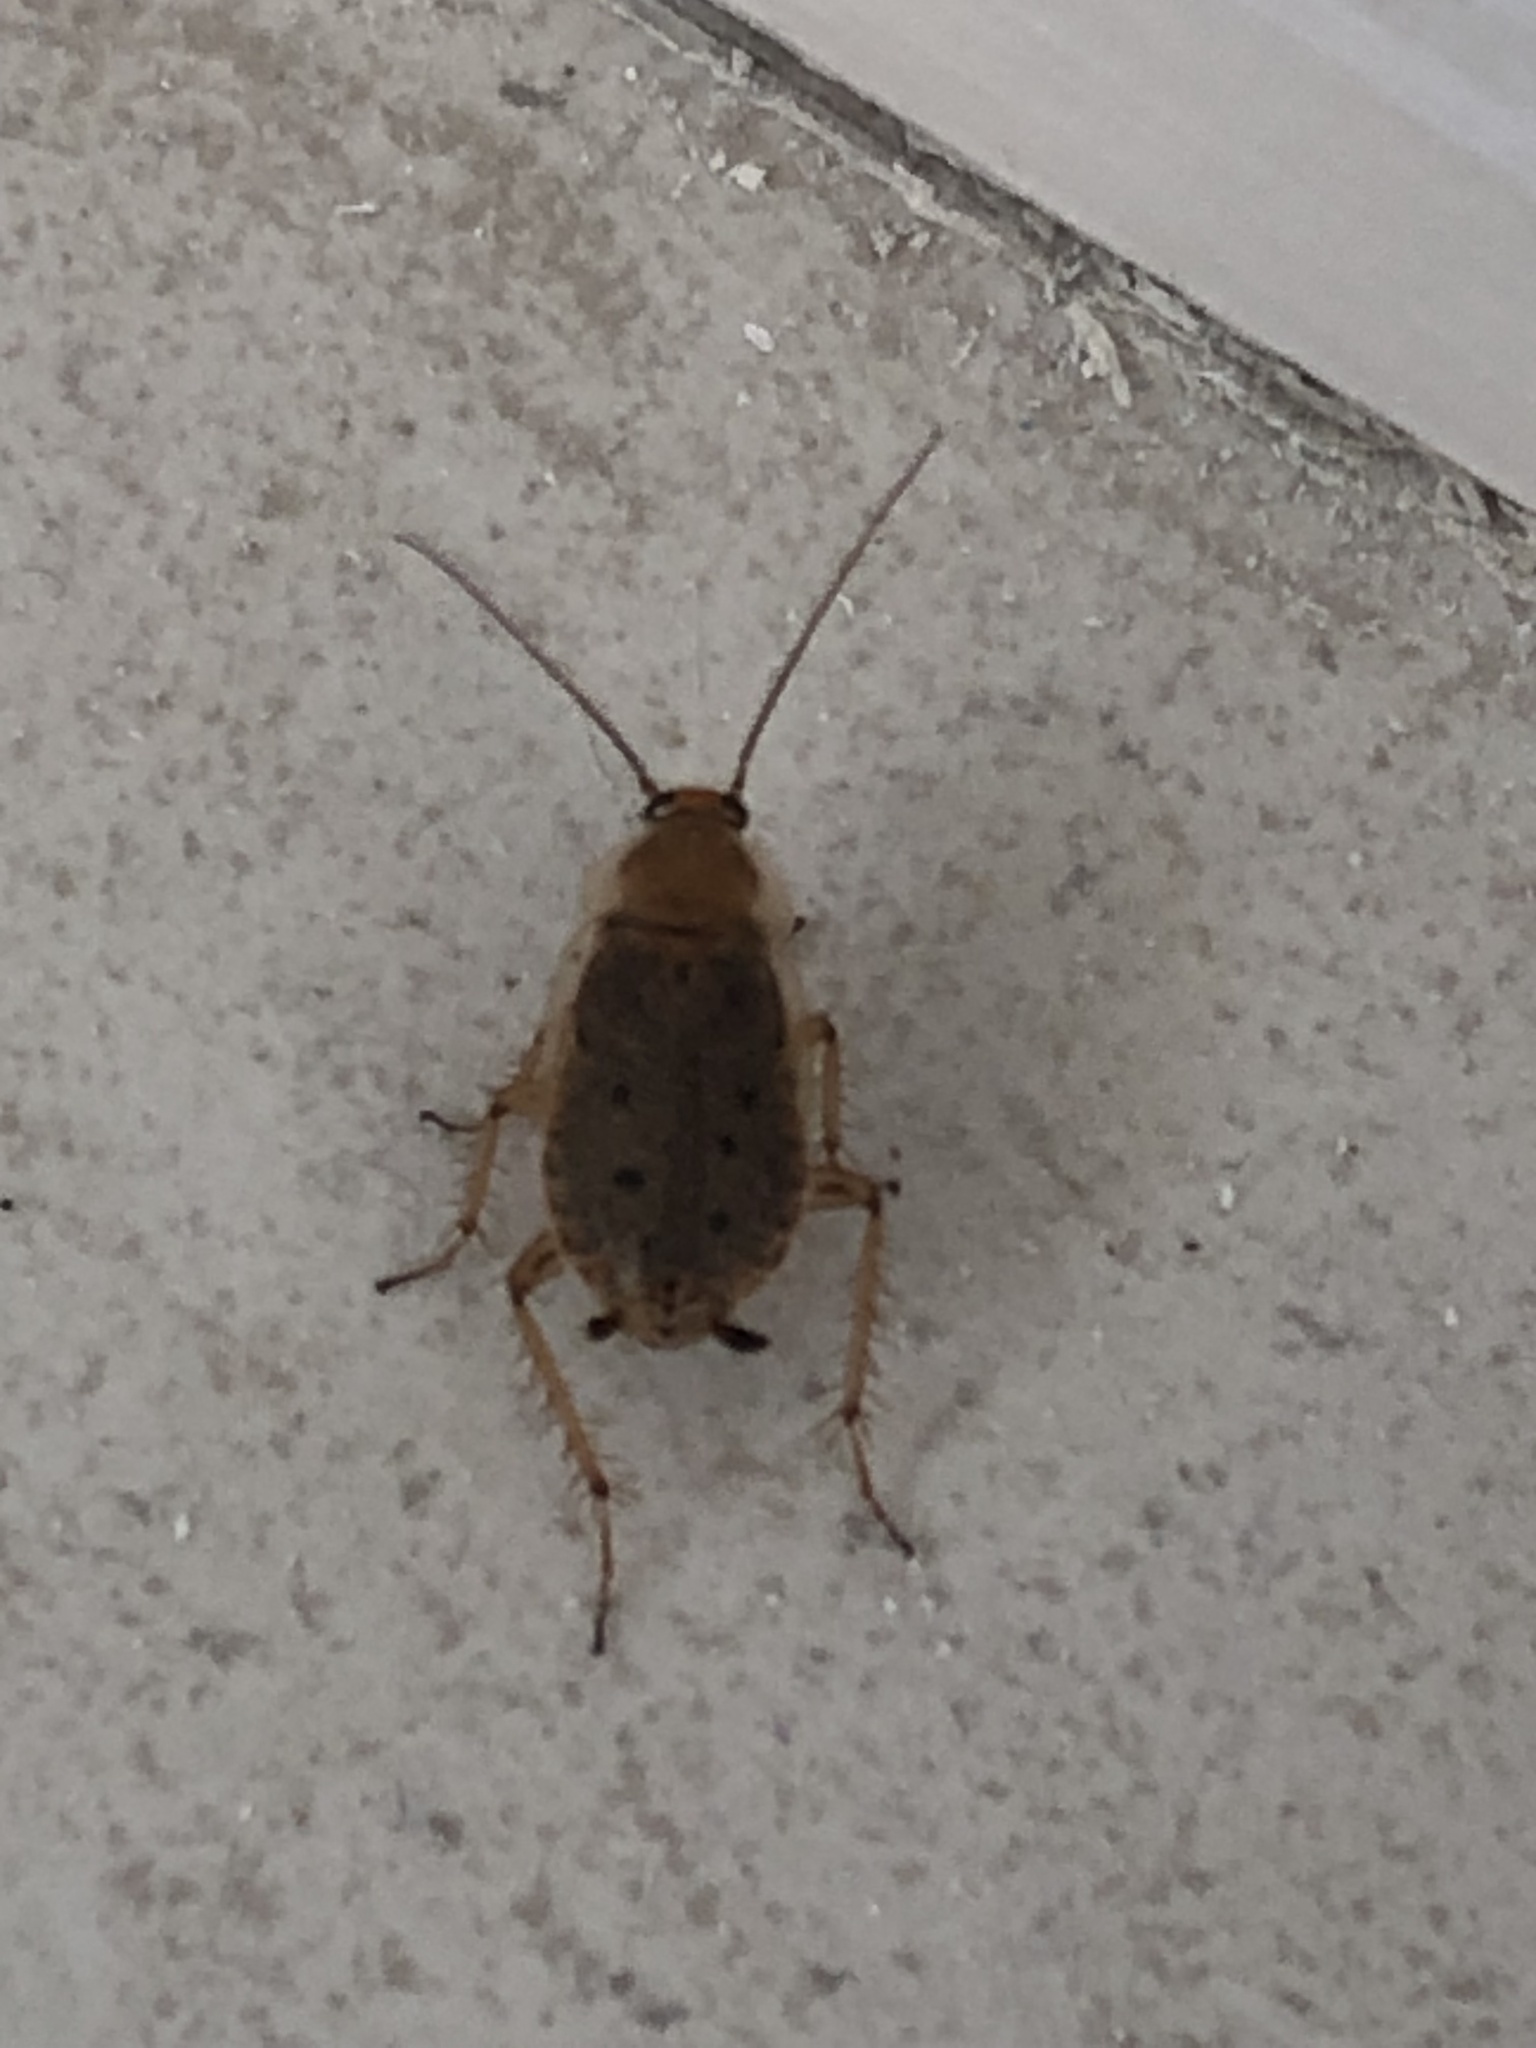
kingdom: Animalia
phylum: Arthropoda
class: Insecta
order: Blattodea
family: Ectobiidae
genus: Ectobius
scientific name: Ectobius lapponicus
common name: Dusky cockroach
